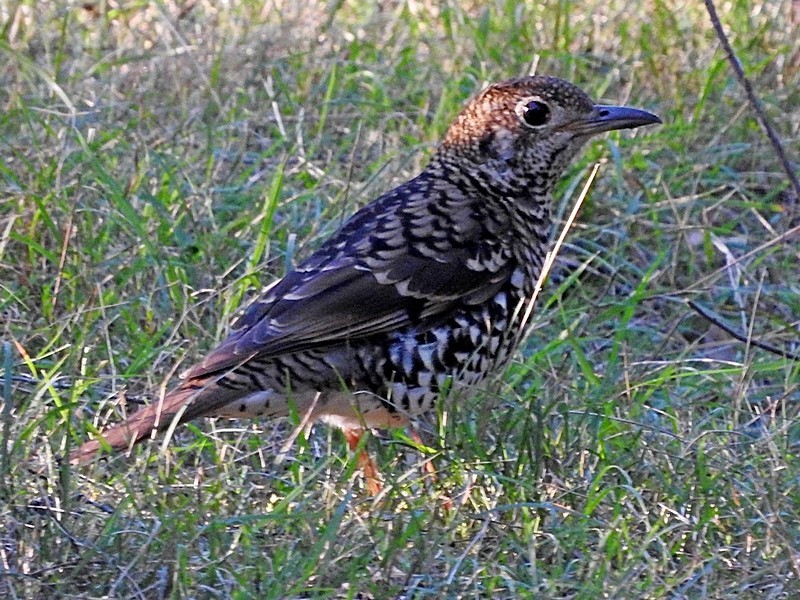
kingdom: Animalia
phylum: Chordata
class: Aves
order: Passeriformes
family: Turdidae
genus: Zoothera
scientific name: Zoothera lunulata
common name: Bassian thrush
